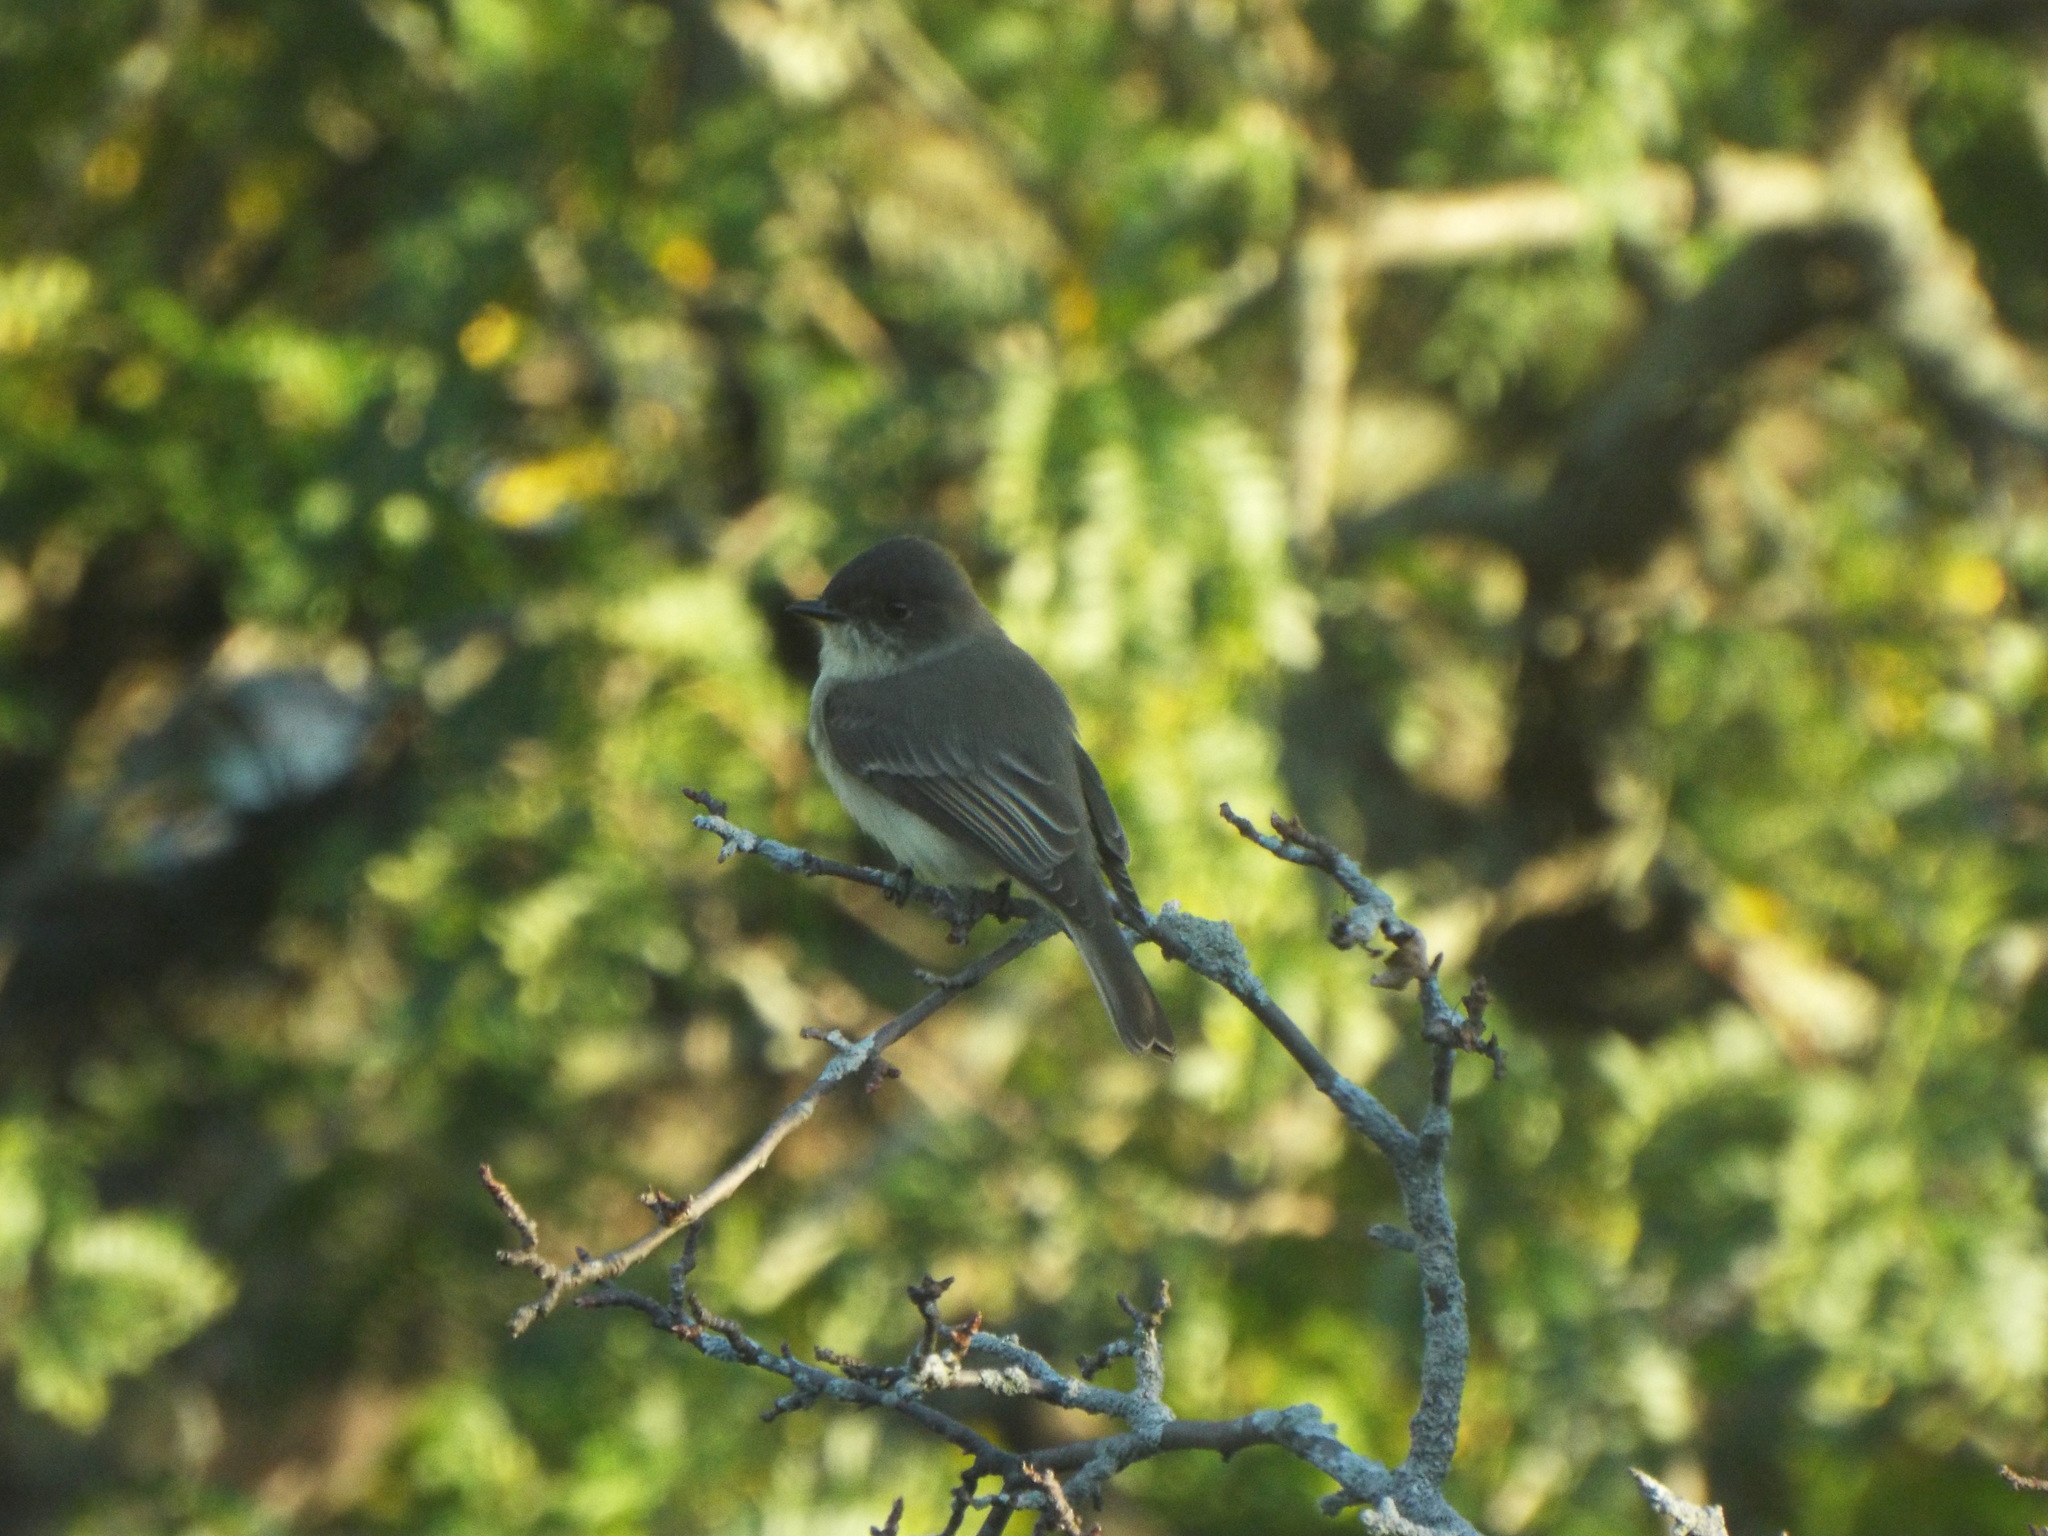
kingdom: Animalia
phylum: Chordata
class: Aves
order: Passeriformes
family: Tyrannidae
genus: Sayornis
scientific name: Sayornis phoebe
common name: Eastern phoebe
